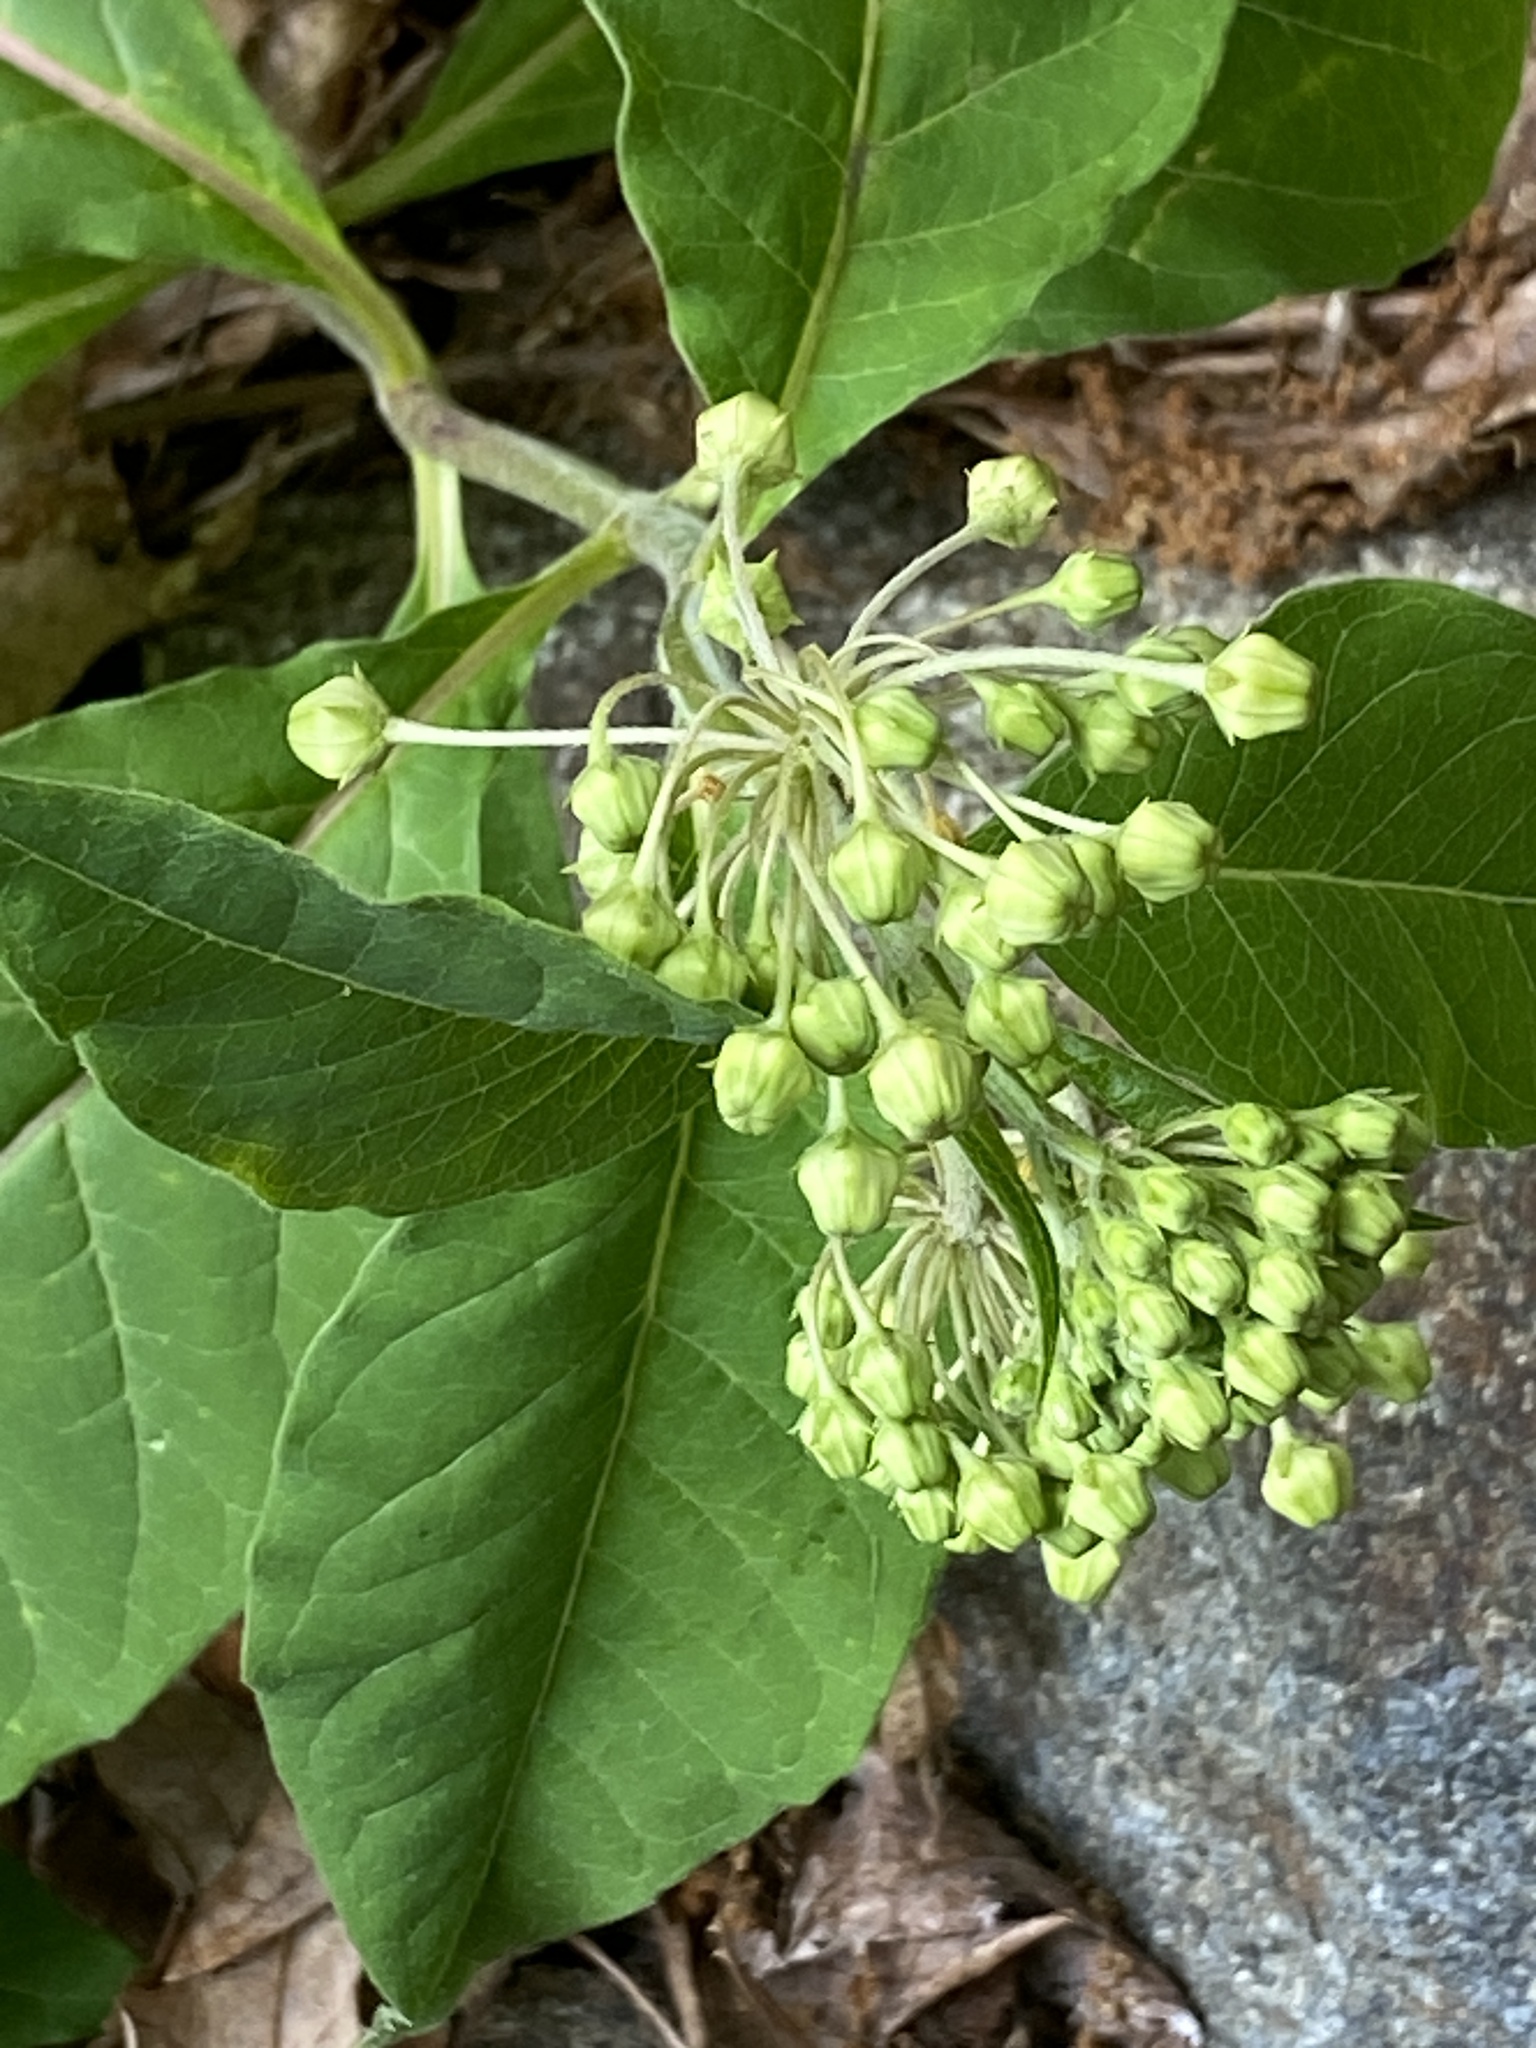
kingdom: Plantae
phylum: Tracheophyta
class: Magnoliopsida
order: Gentianales
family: Apocynaceae
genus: Asclepias
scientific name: Asclepias exaltata
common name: Poke milkweed
